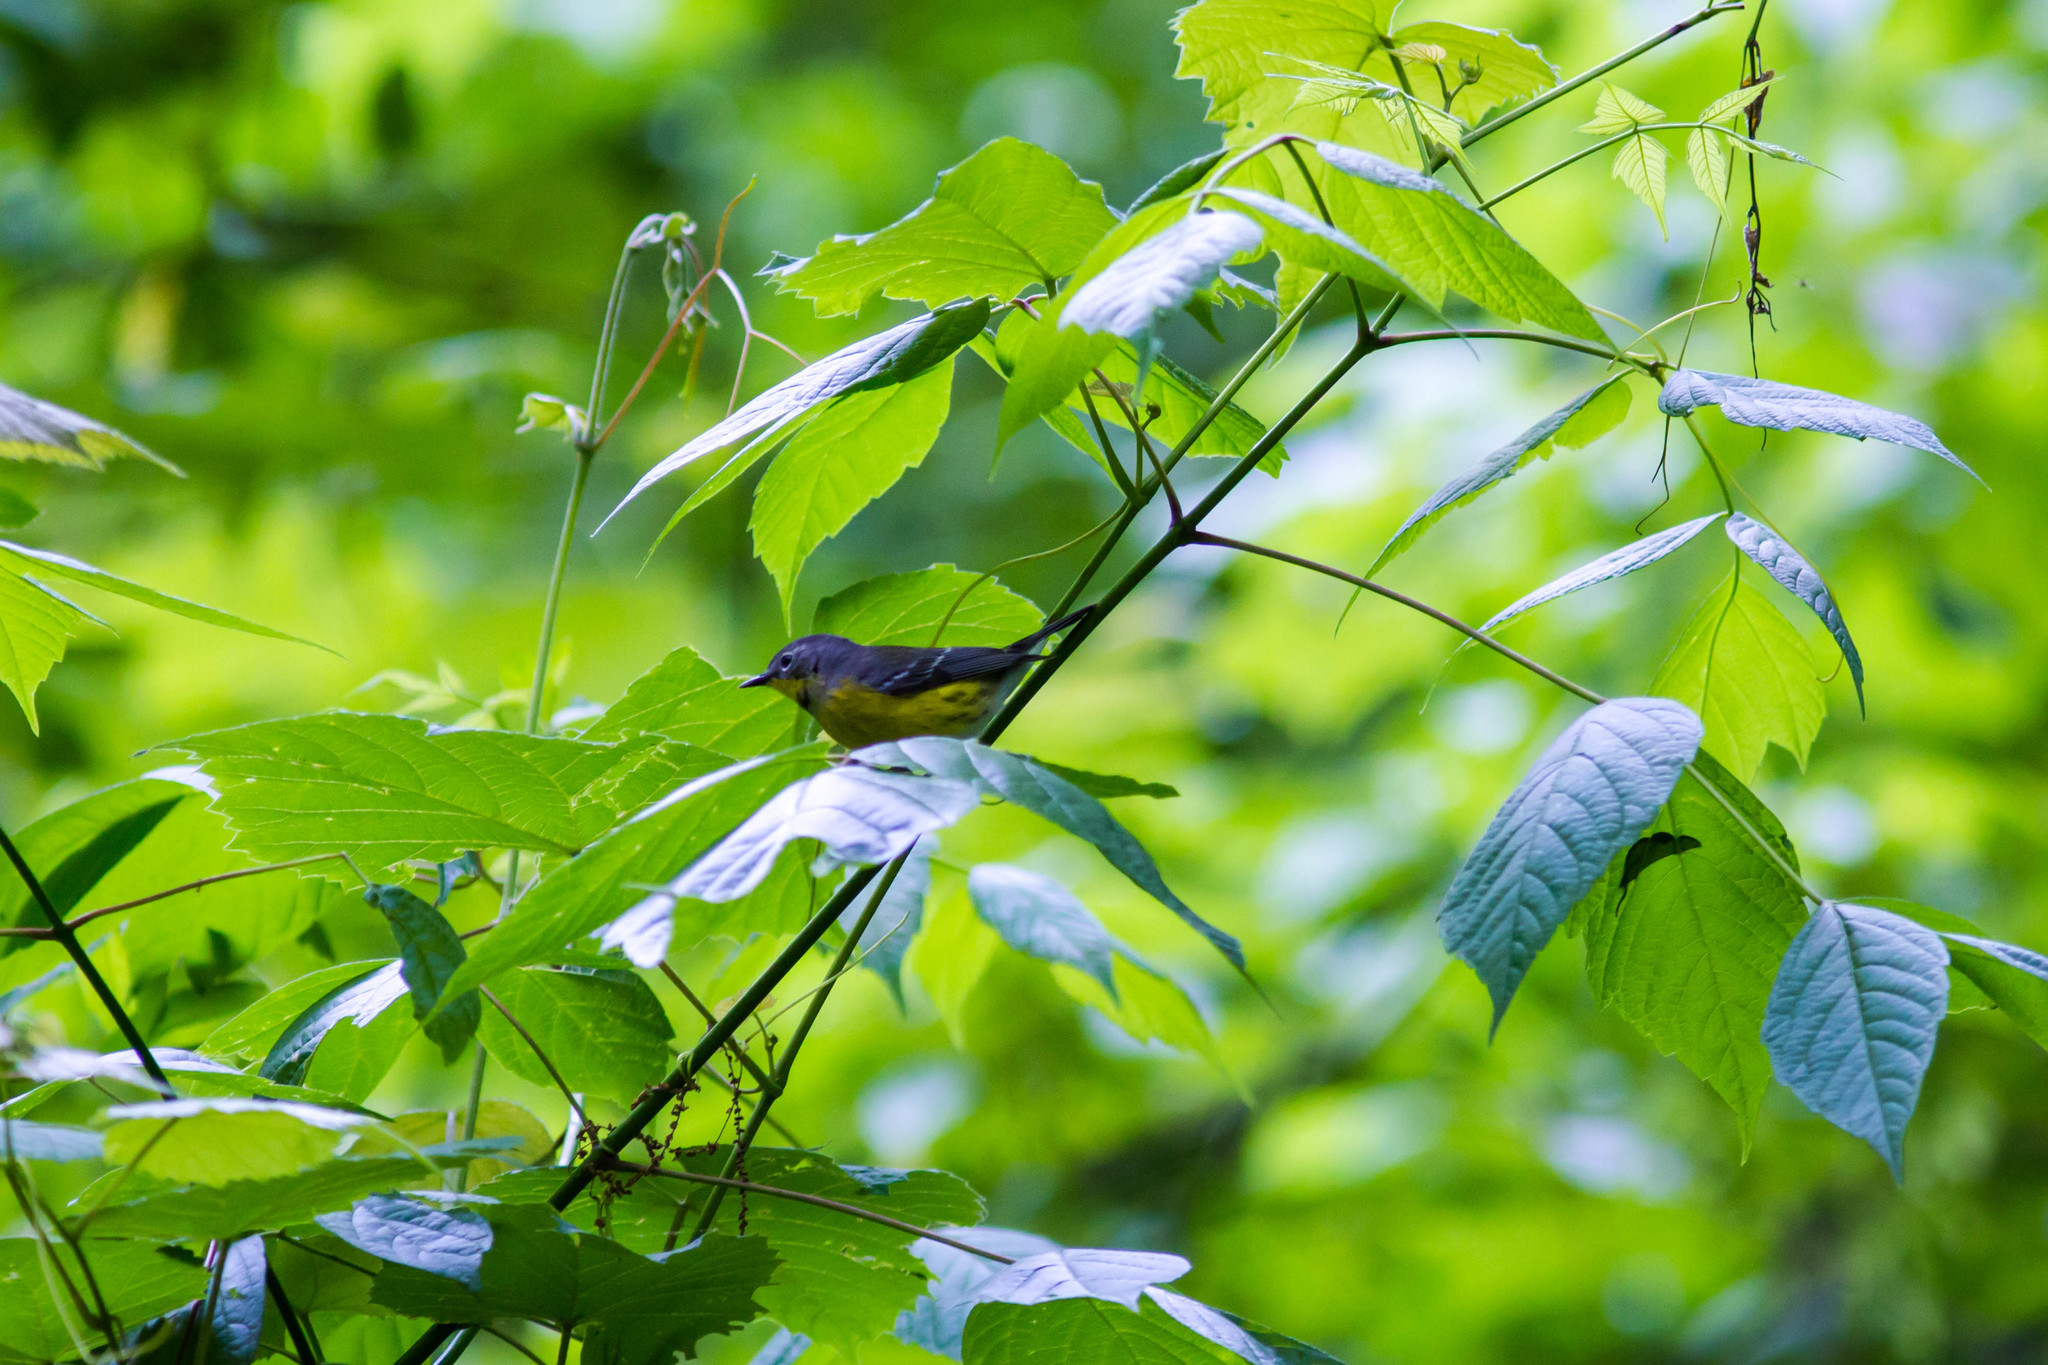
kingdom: Animalia
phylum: Chordata
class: Aves
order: Passeriformes
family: Parulidae
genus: Setophaga
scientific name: Setophaga magnolia
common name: Magnolia warbler
